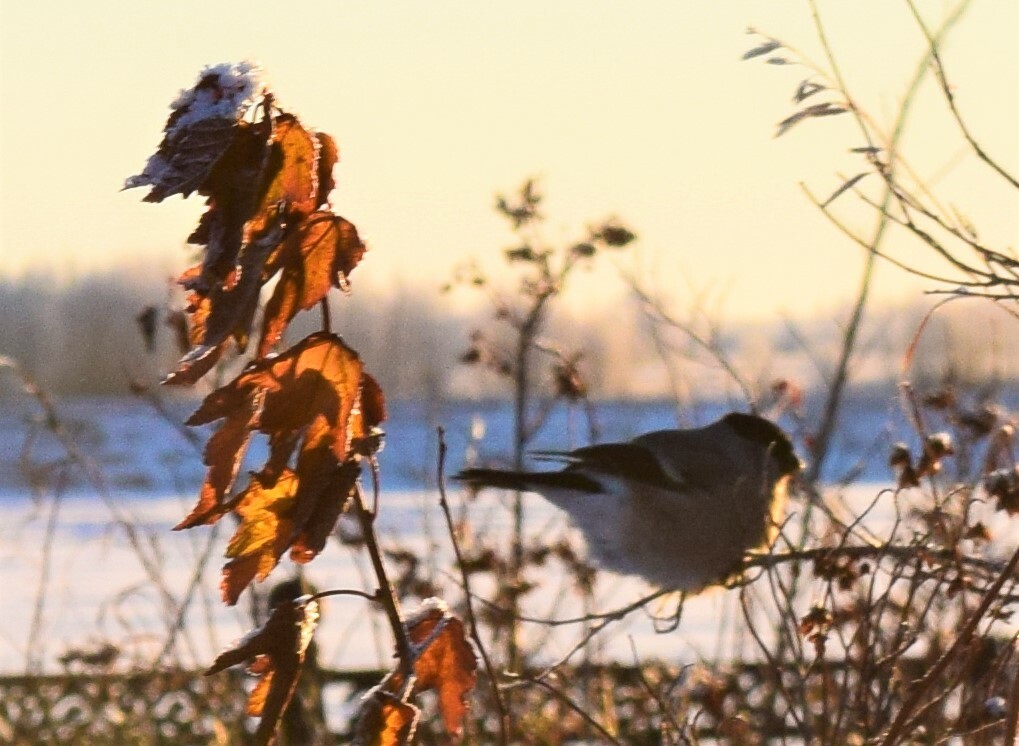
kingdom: Animalia
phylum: Chordata
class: Aves
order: Passeriformes
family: Fringillidae
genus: Pyrrhula
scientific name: Pyrrhula pyrrhula
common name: Eurasian bullfinch
